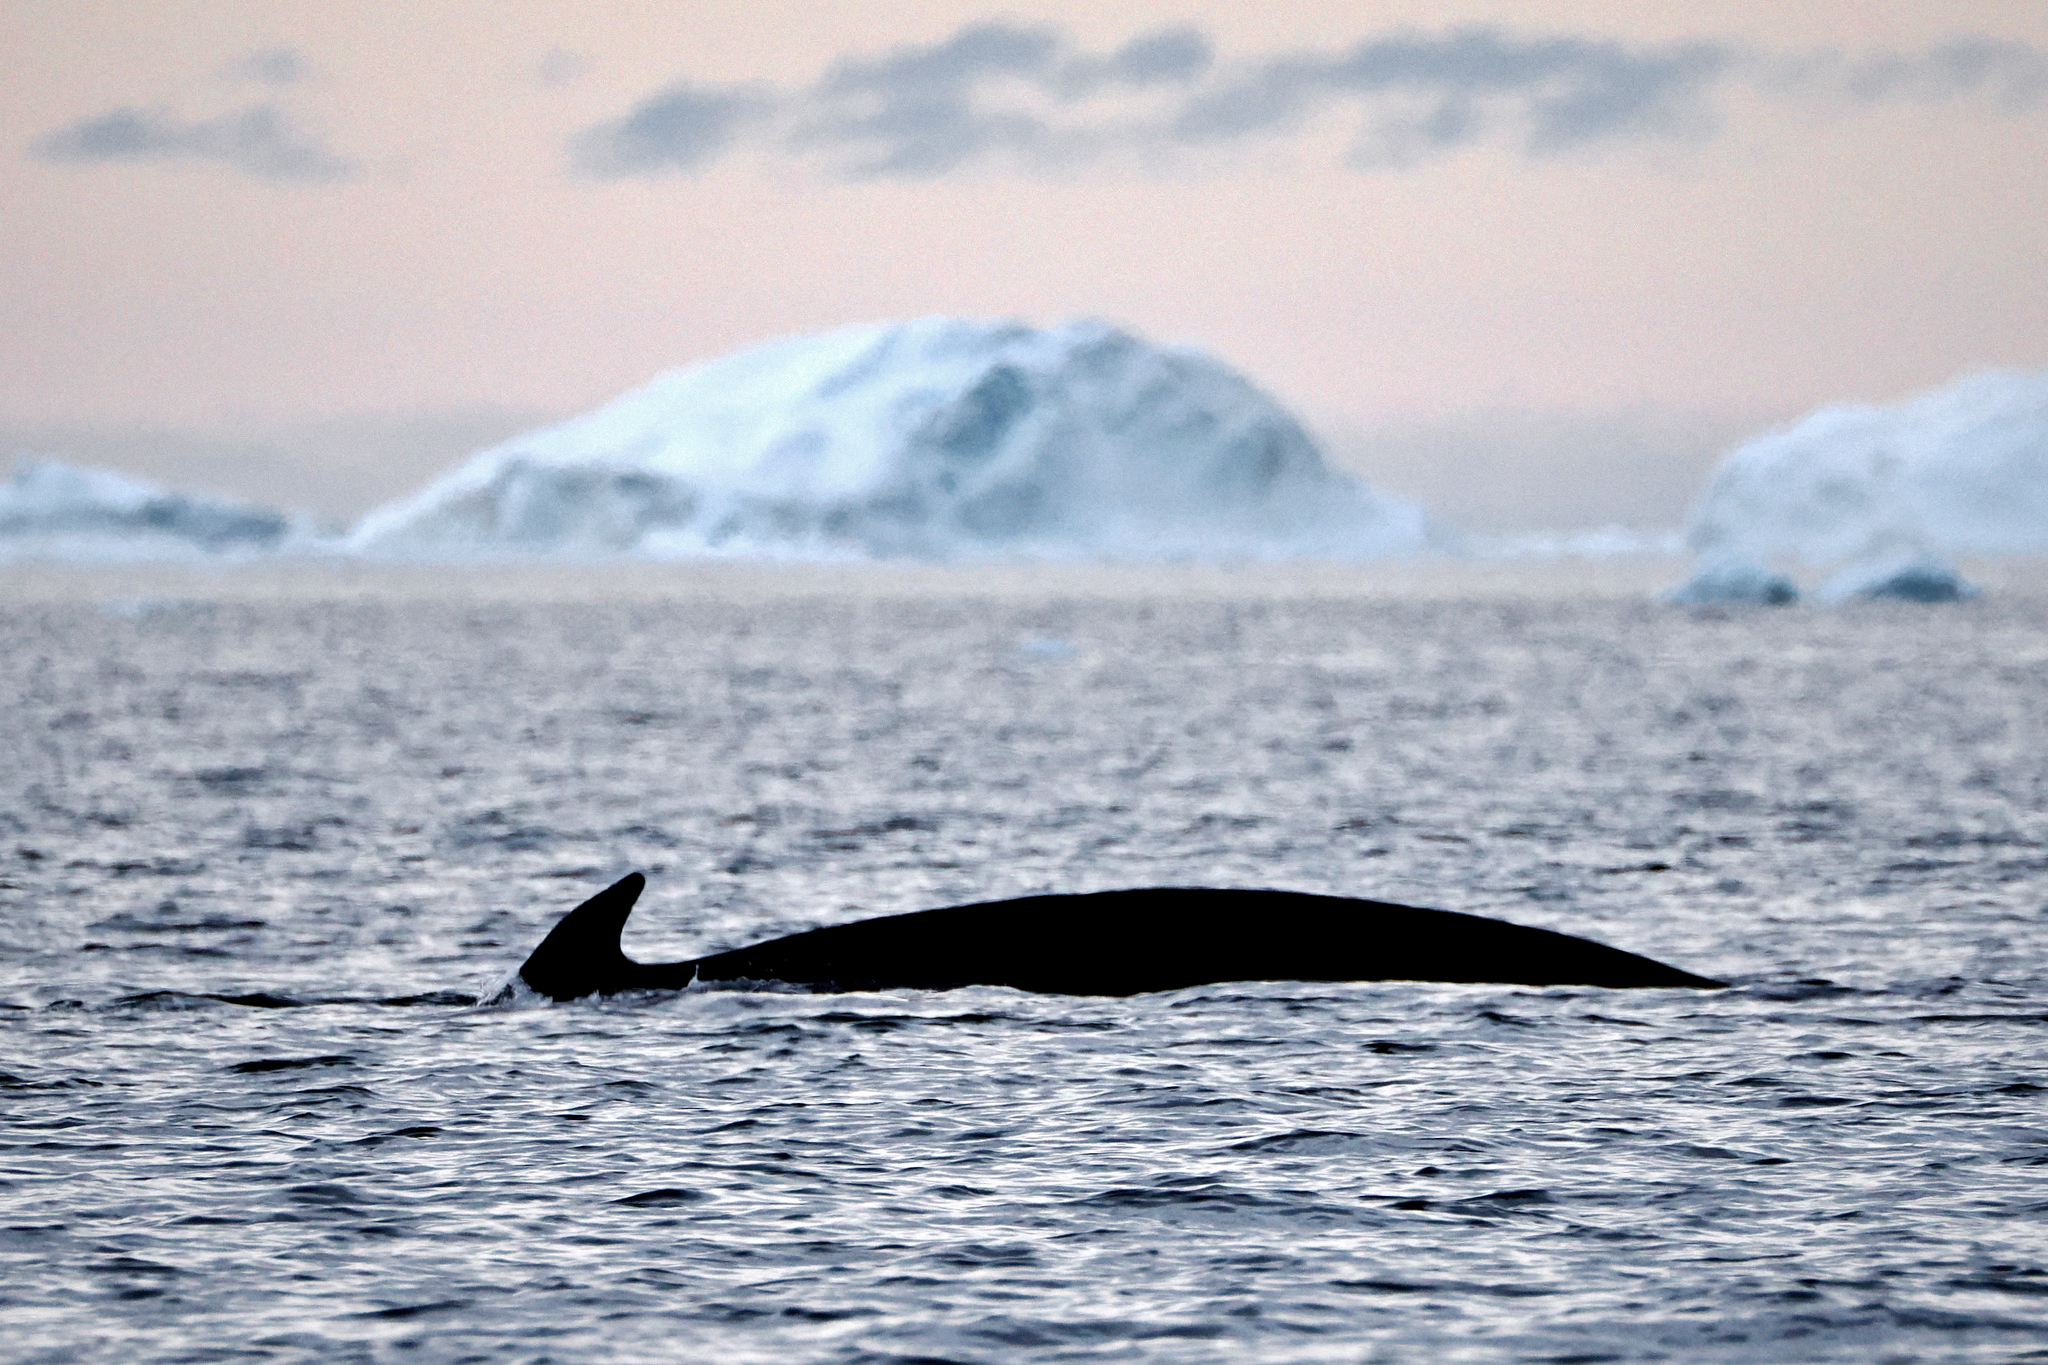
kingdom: Animalia
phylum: Chordata
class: Mammalia
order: Cetacea
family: Balaenopteridae
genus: Megaptera
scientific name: Megaptera novaeangliae
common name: Humpback whale
